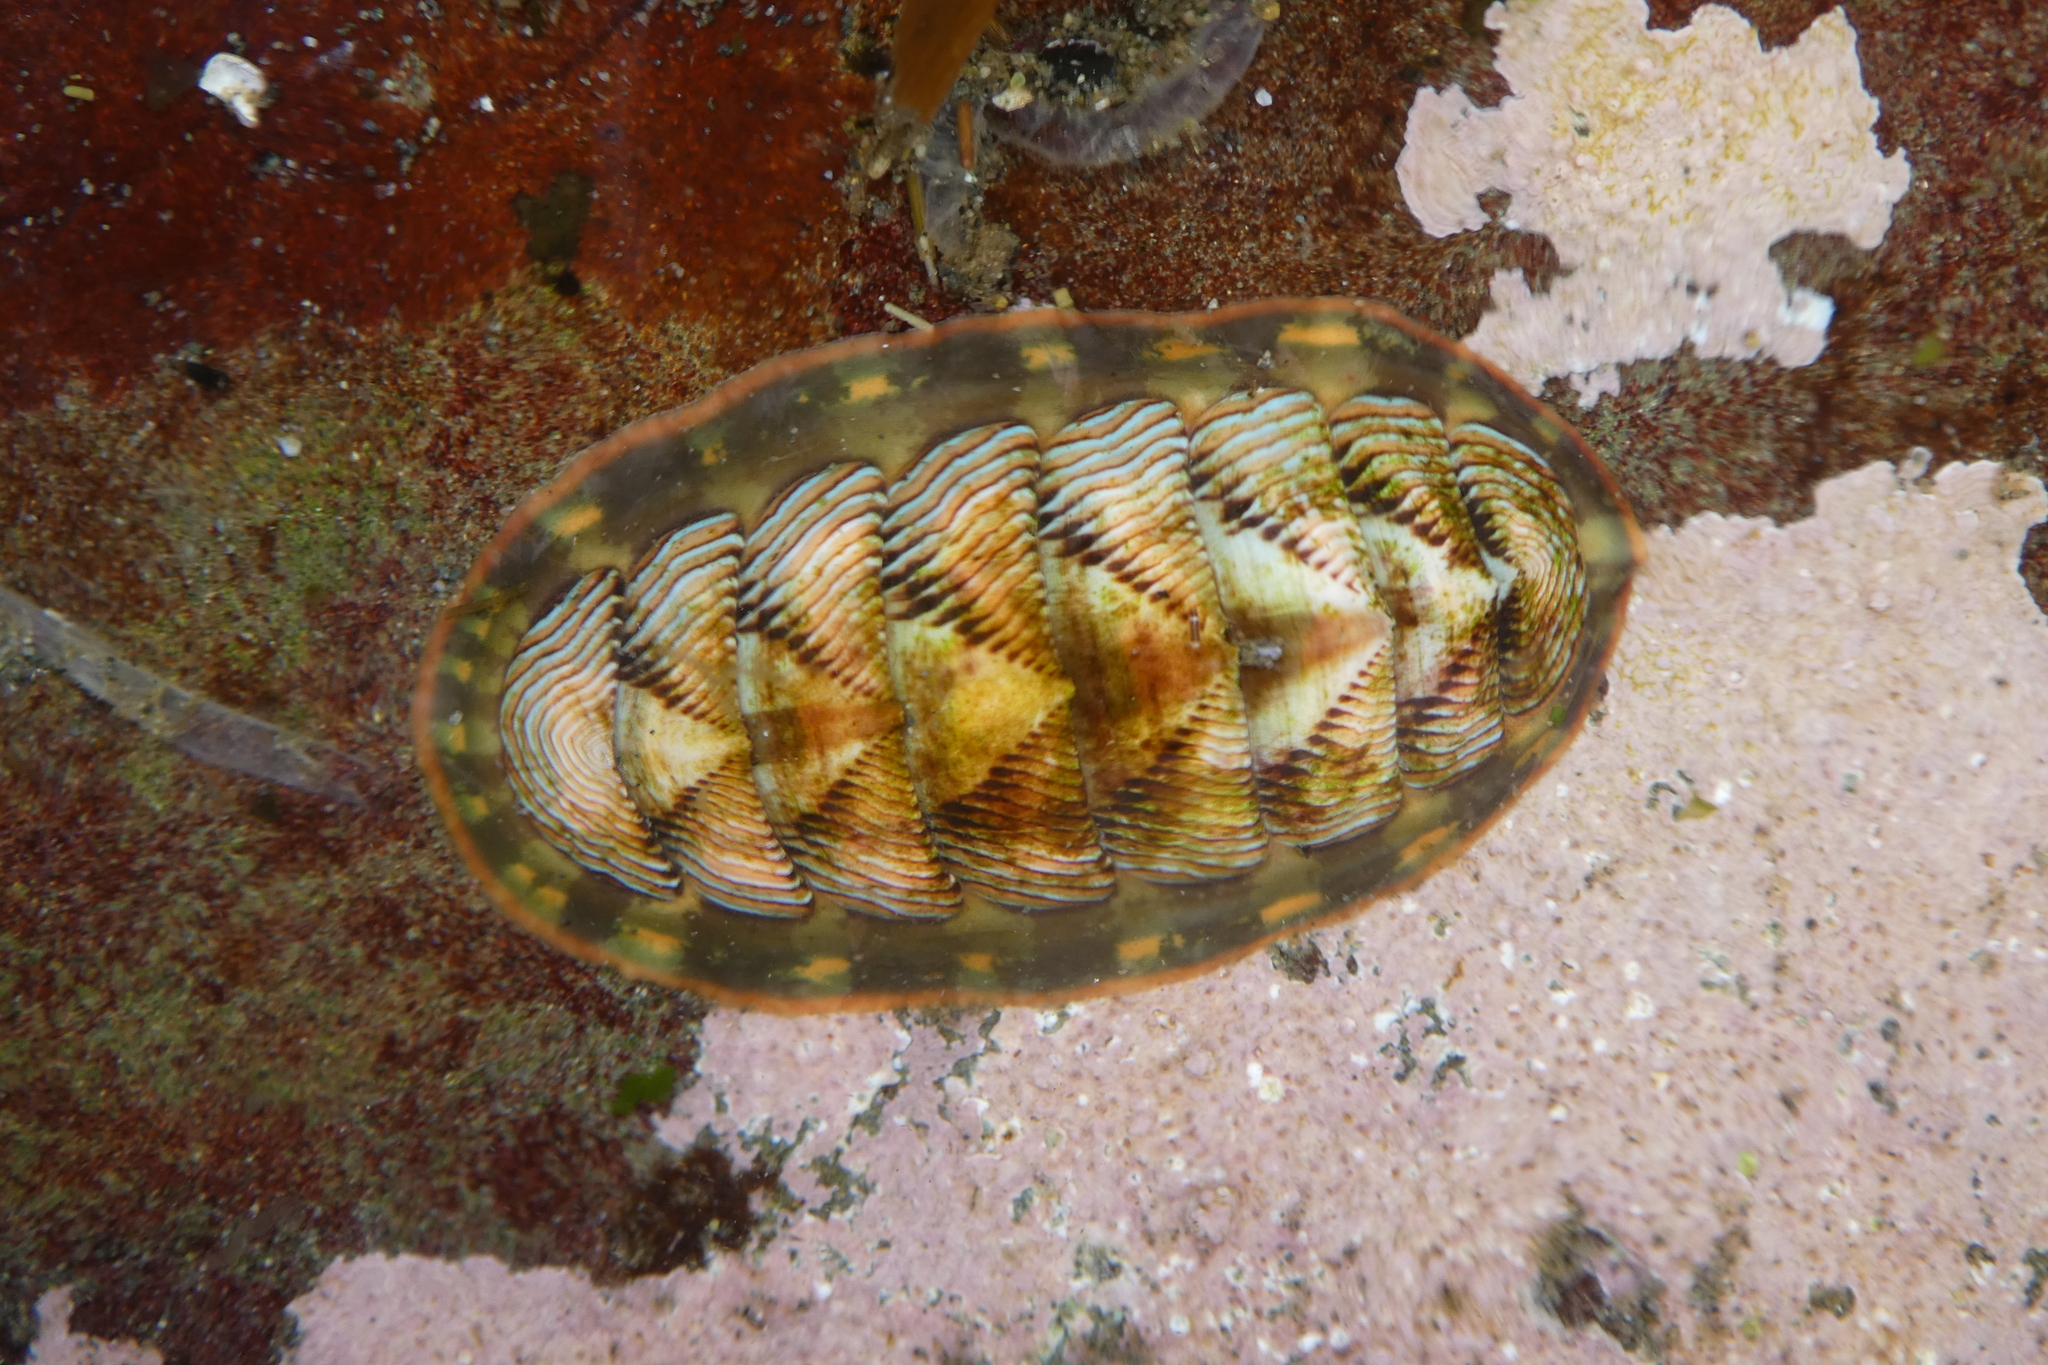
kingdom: Animalia
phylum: Mollusca
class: Polyplacophora
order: Chitonida
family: Tonicellidae
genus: Tonicella
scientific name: Tonicella lineata
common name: Lined chiton
